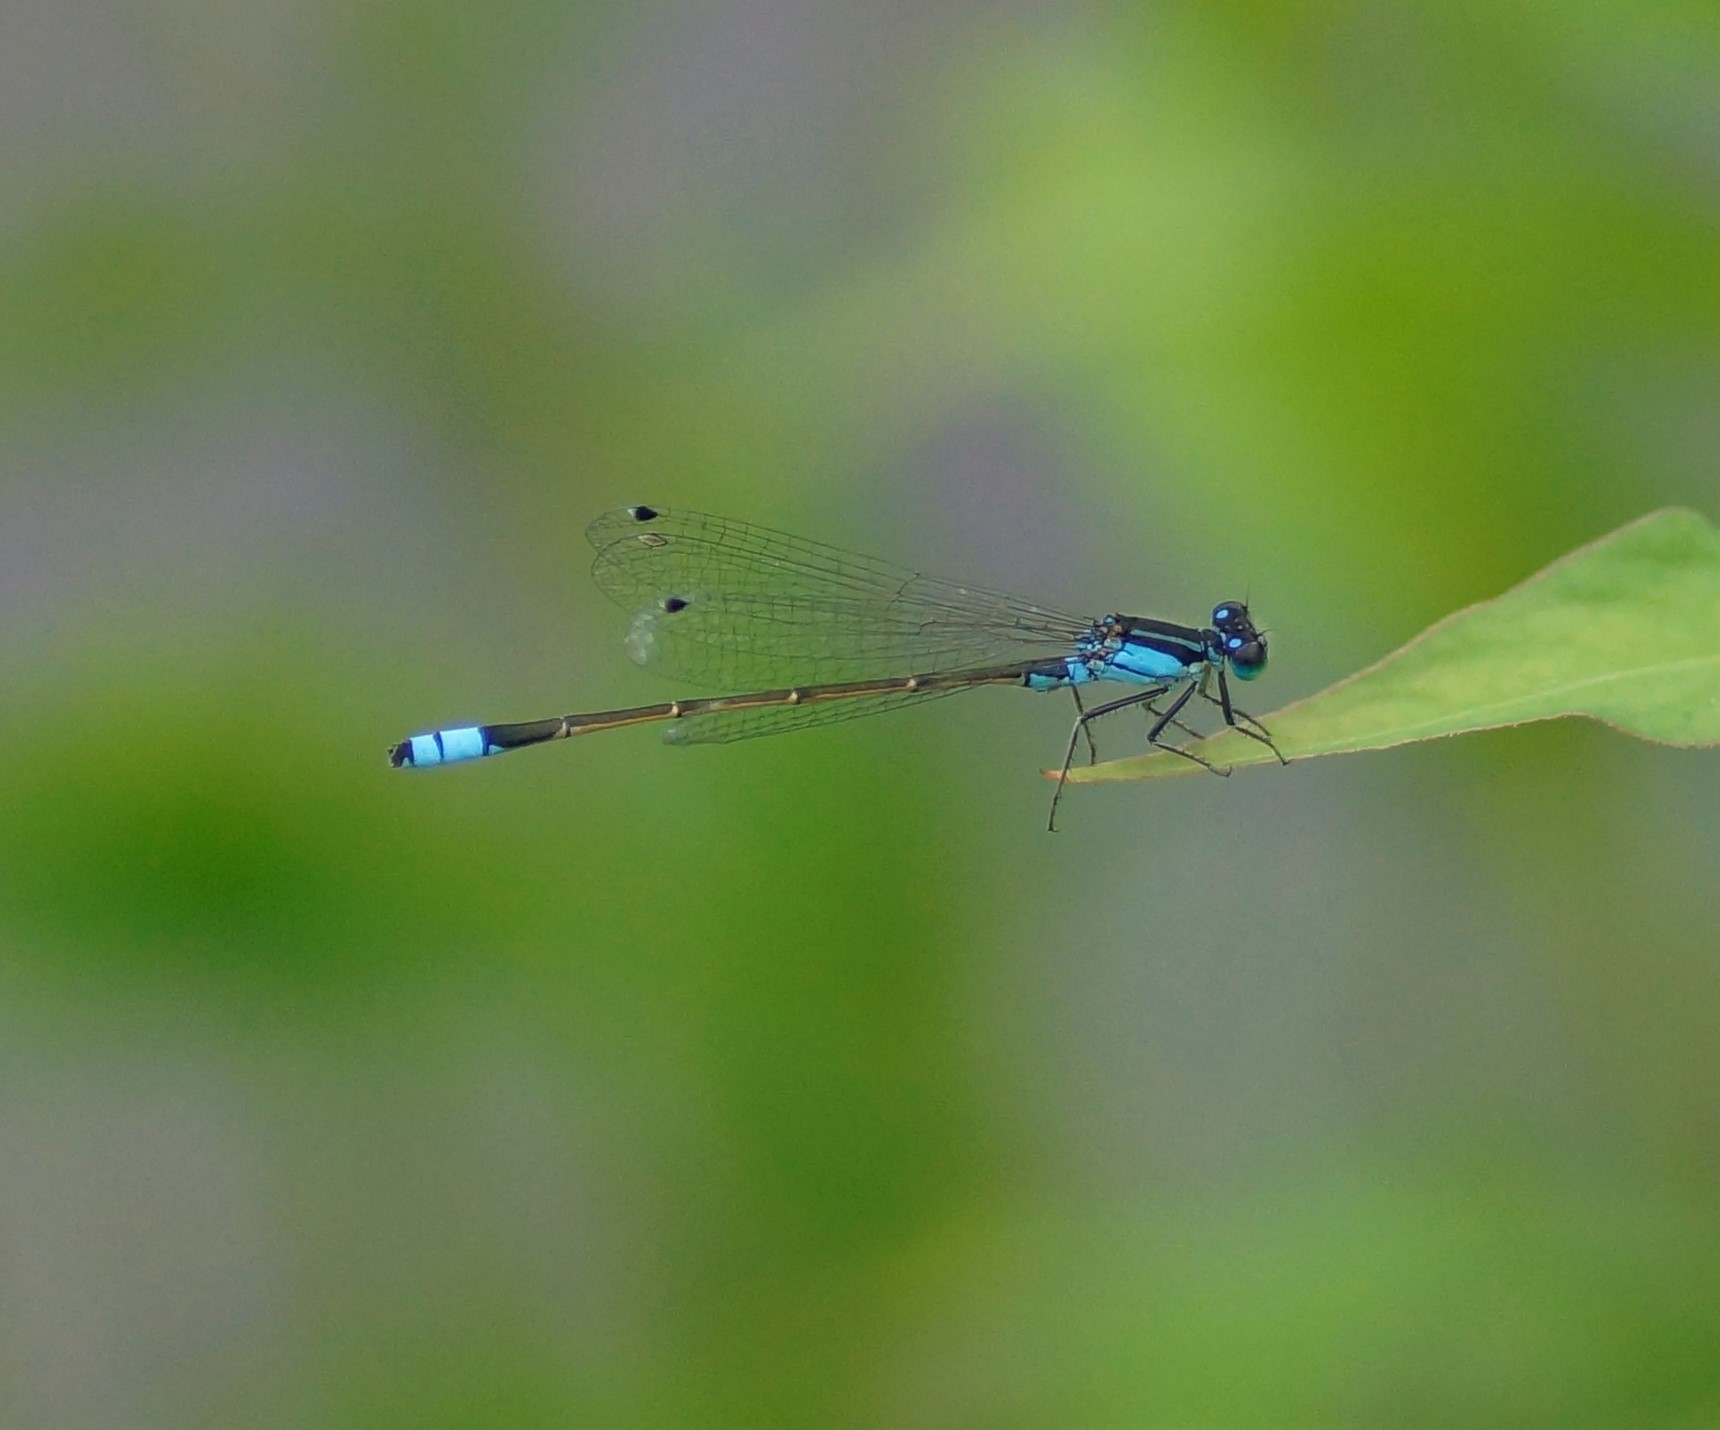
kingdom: Animalia
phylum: Arthropoda
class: Insecta
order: Odonata
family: Coenagrionidae
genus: Ischnura
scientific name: Ischnura heterosticta
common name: Common bluetail
